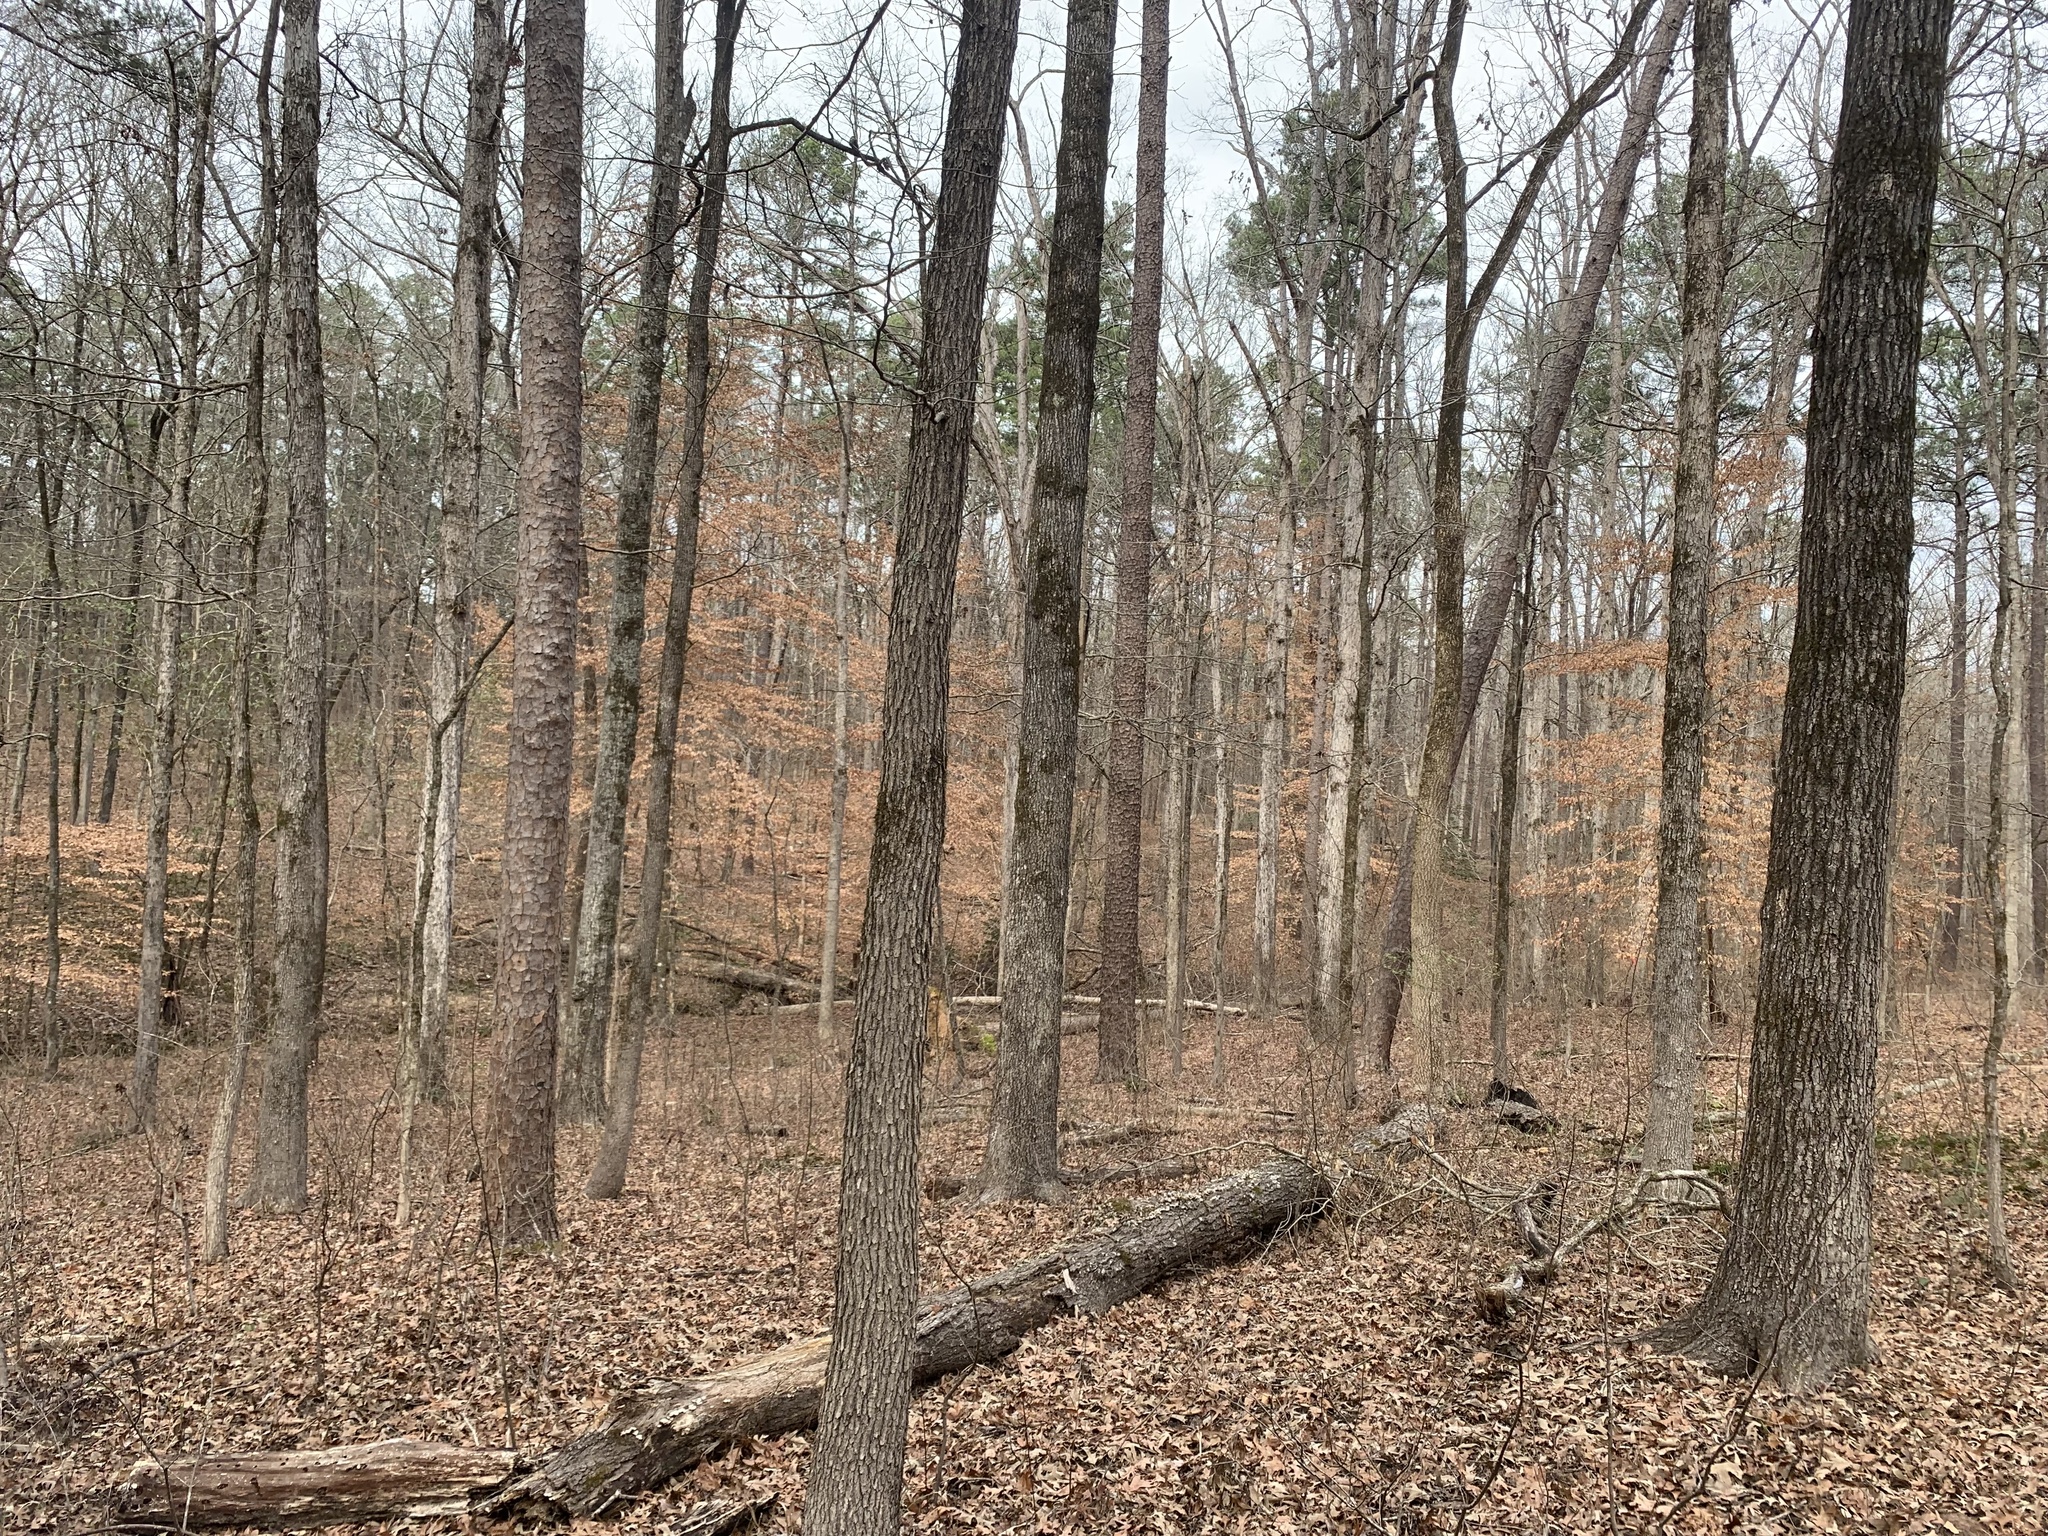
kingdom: Plantae
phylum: Tracheophyta
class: Magnoliopsida
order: Fagales
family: Fagaceae
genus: Fagus
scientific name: Fagus grandifolia
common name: American beech
